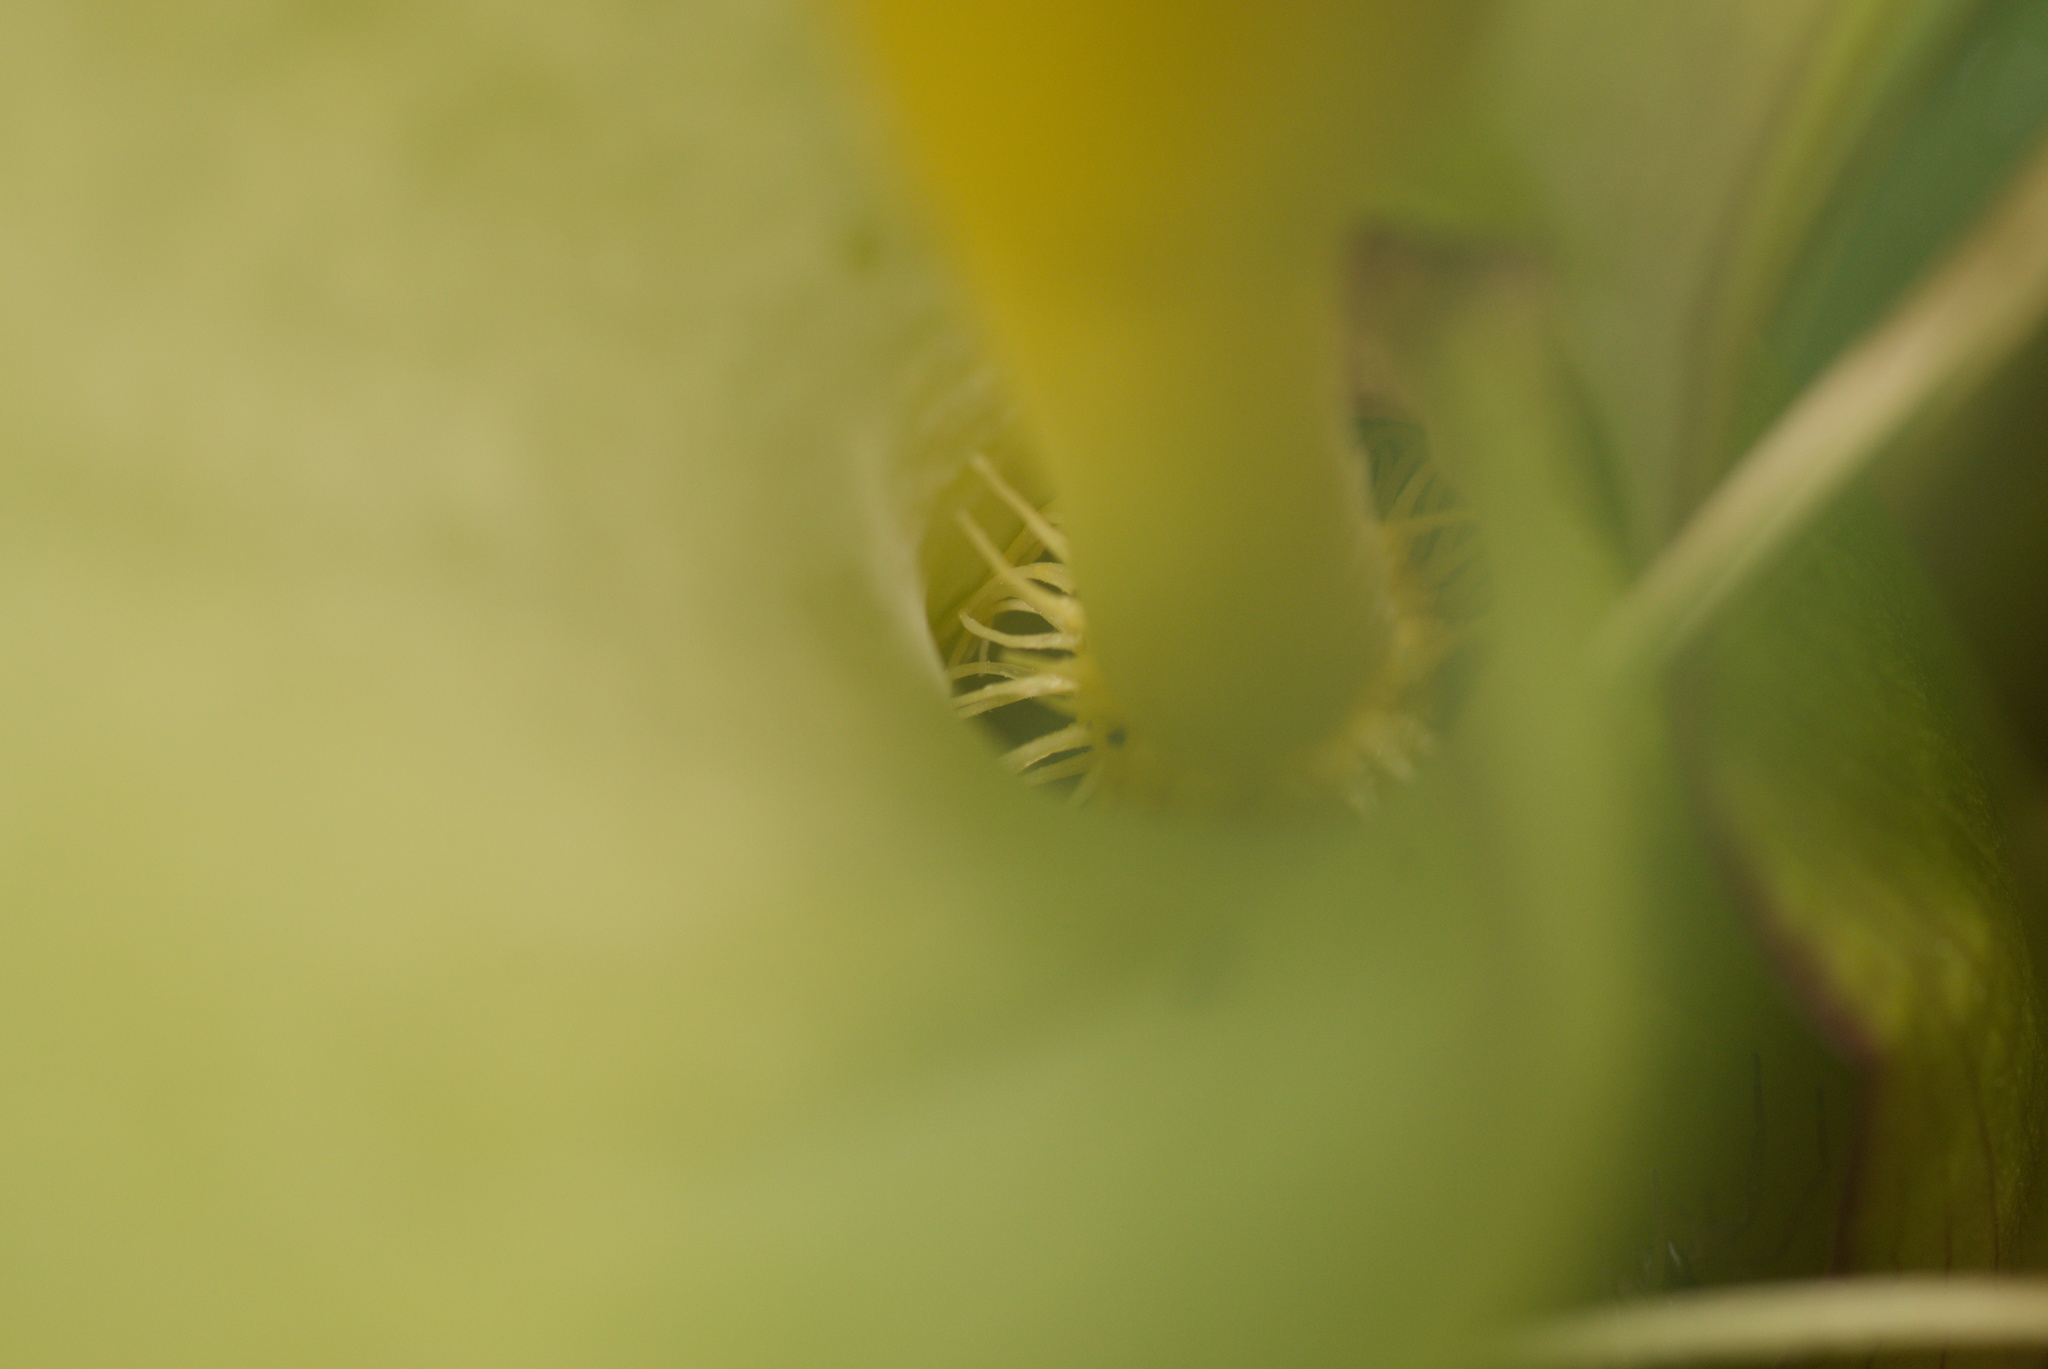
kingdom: Plantae
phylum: Tracheophyta
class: Liliopsida
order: Alismatales
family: Araceae
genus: Arum
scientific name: Arum italicum
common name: Italian lords-and-ladies
